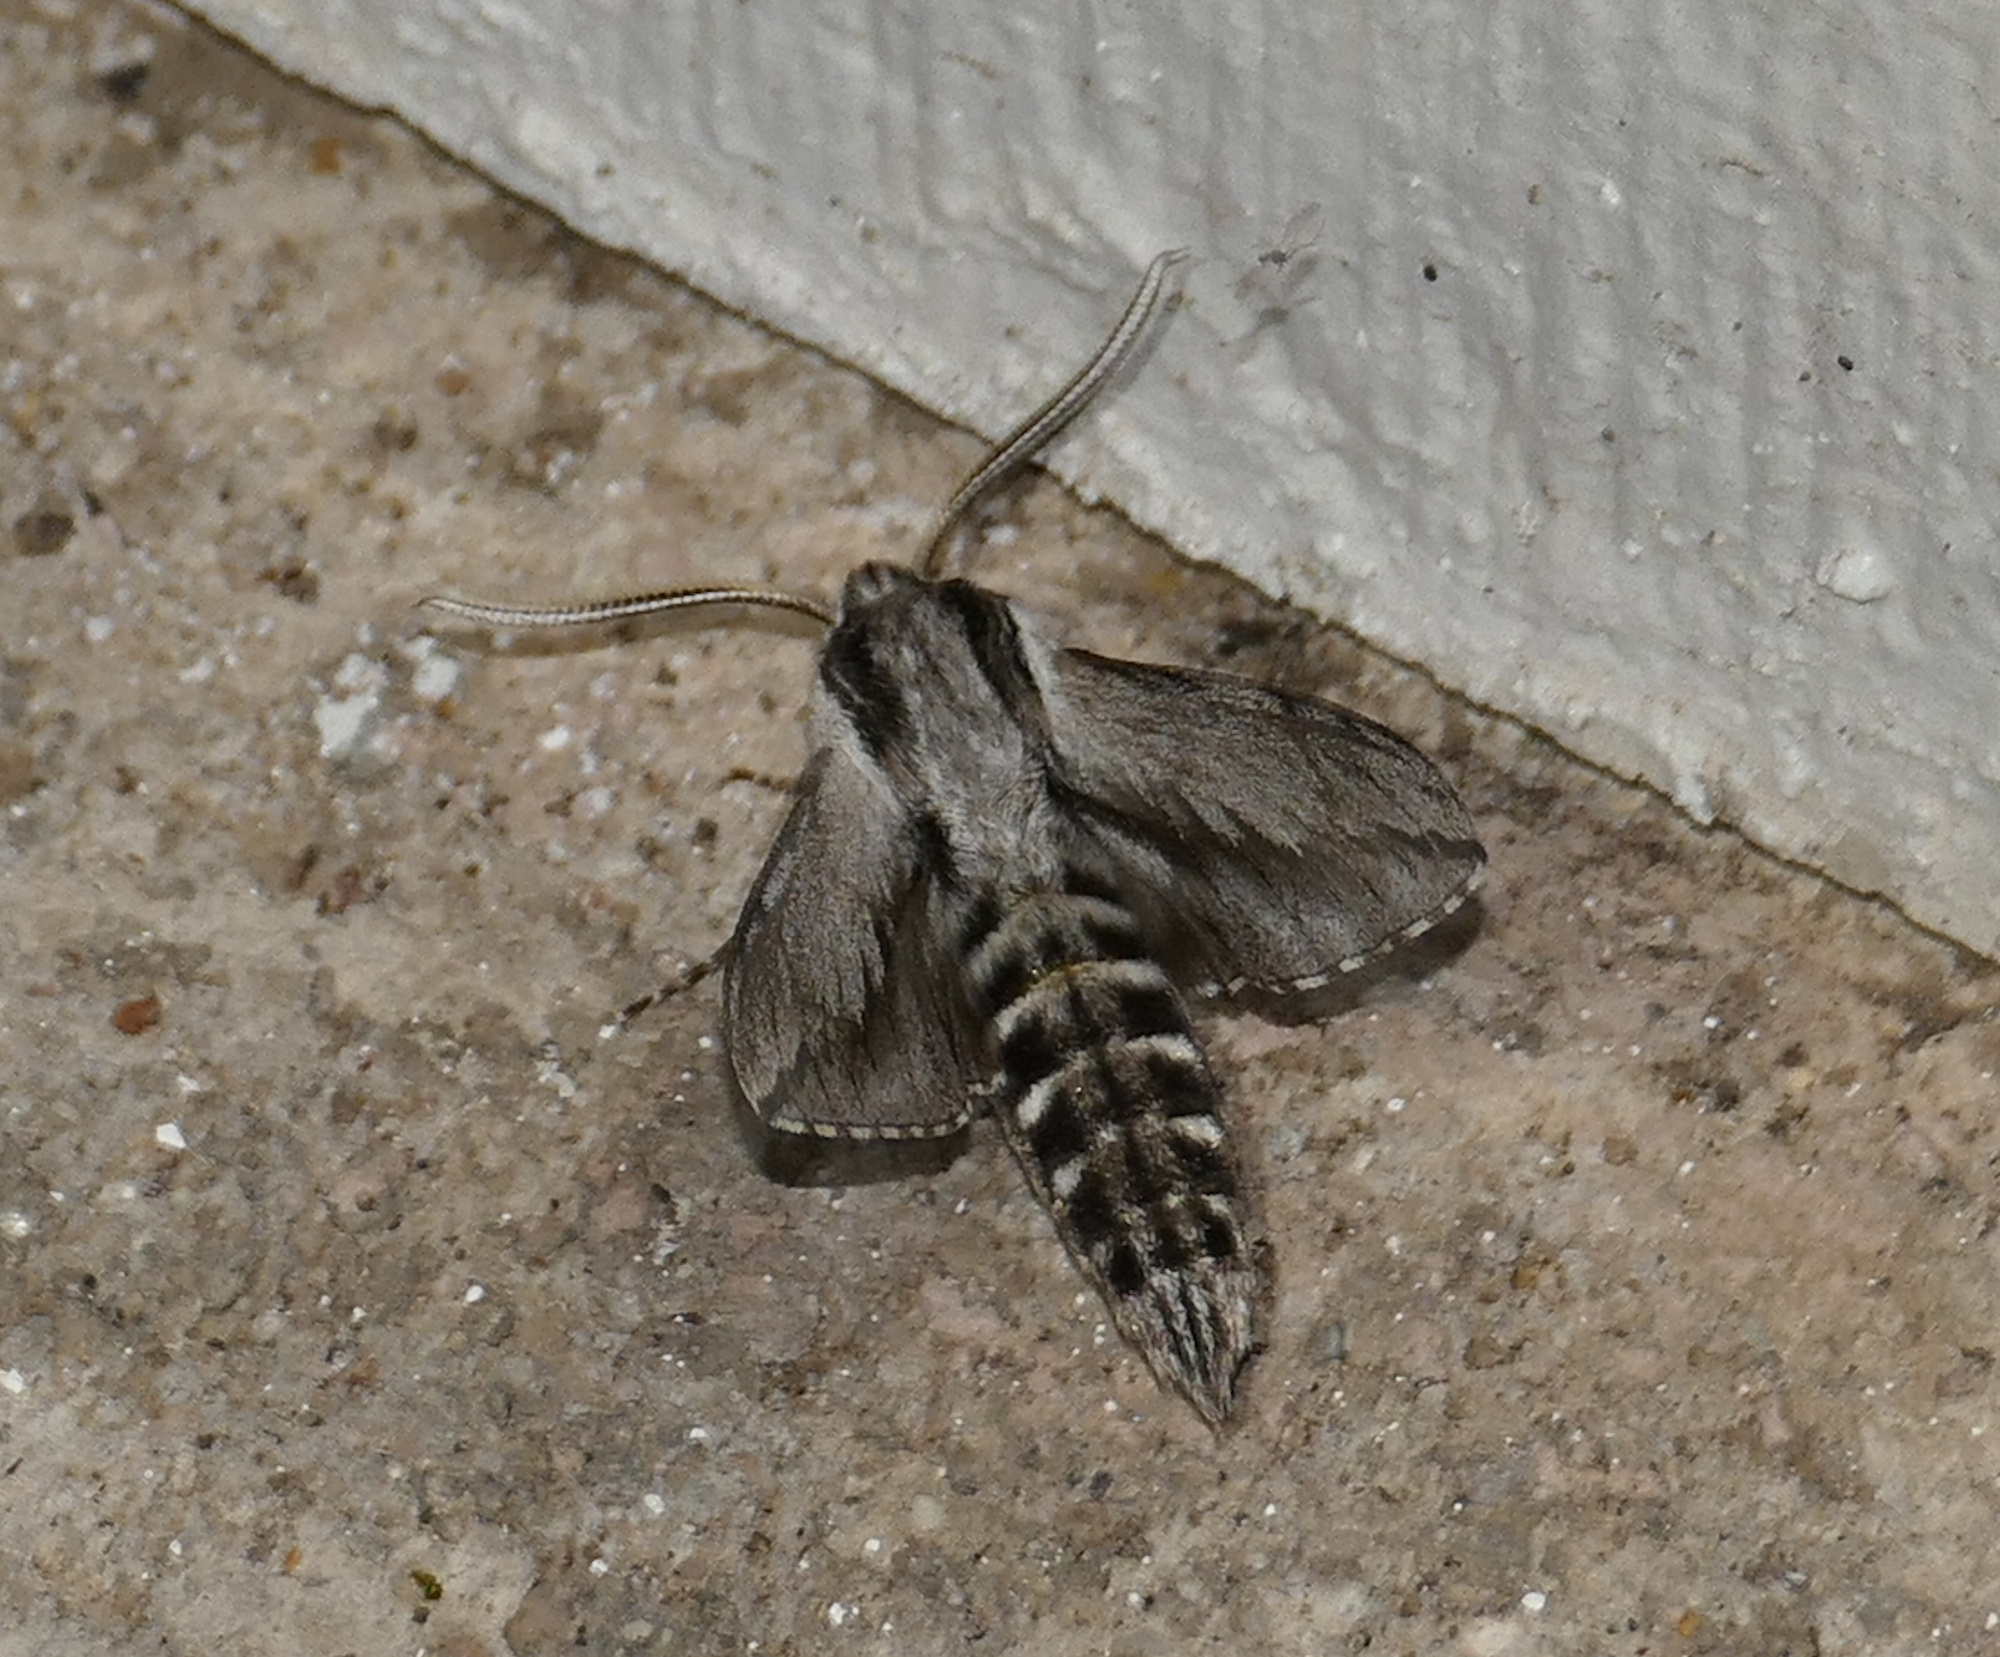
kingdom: Animalia
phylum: Arthropoda
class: Insecta
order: Lepidoptera
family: Sphingidae
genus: Sphinx
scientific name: Sphinx dollii
